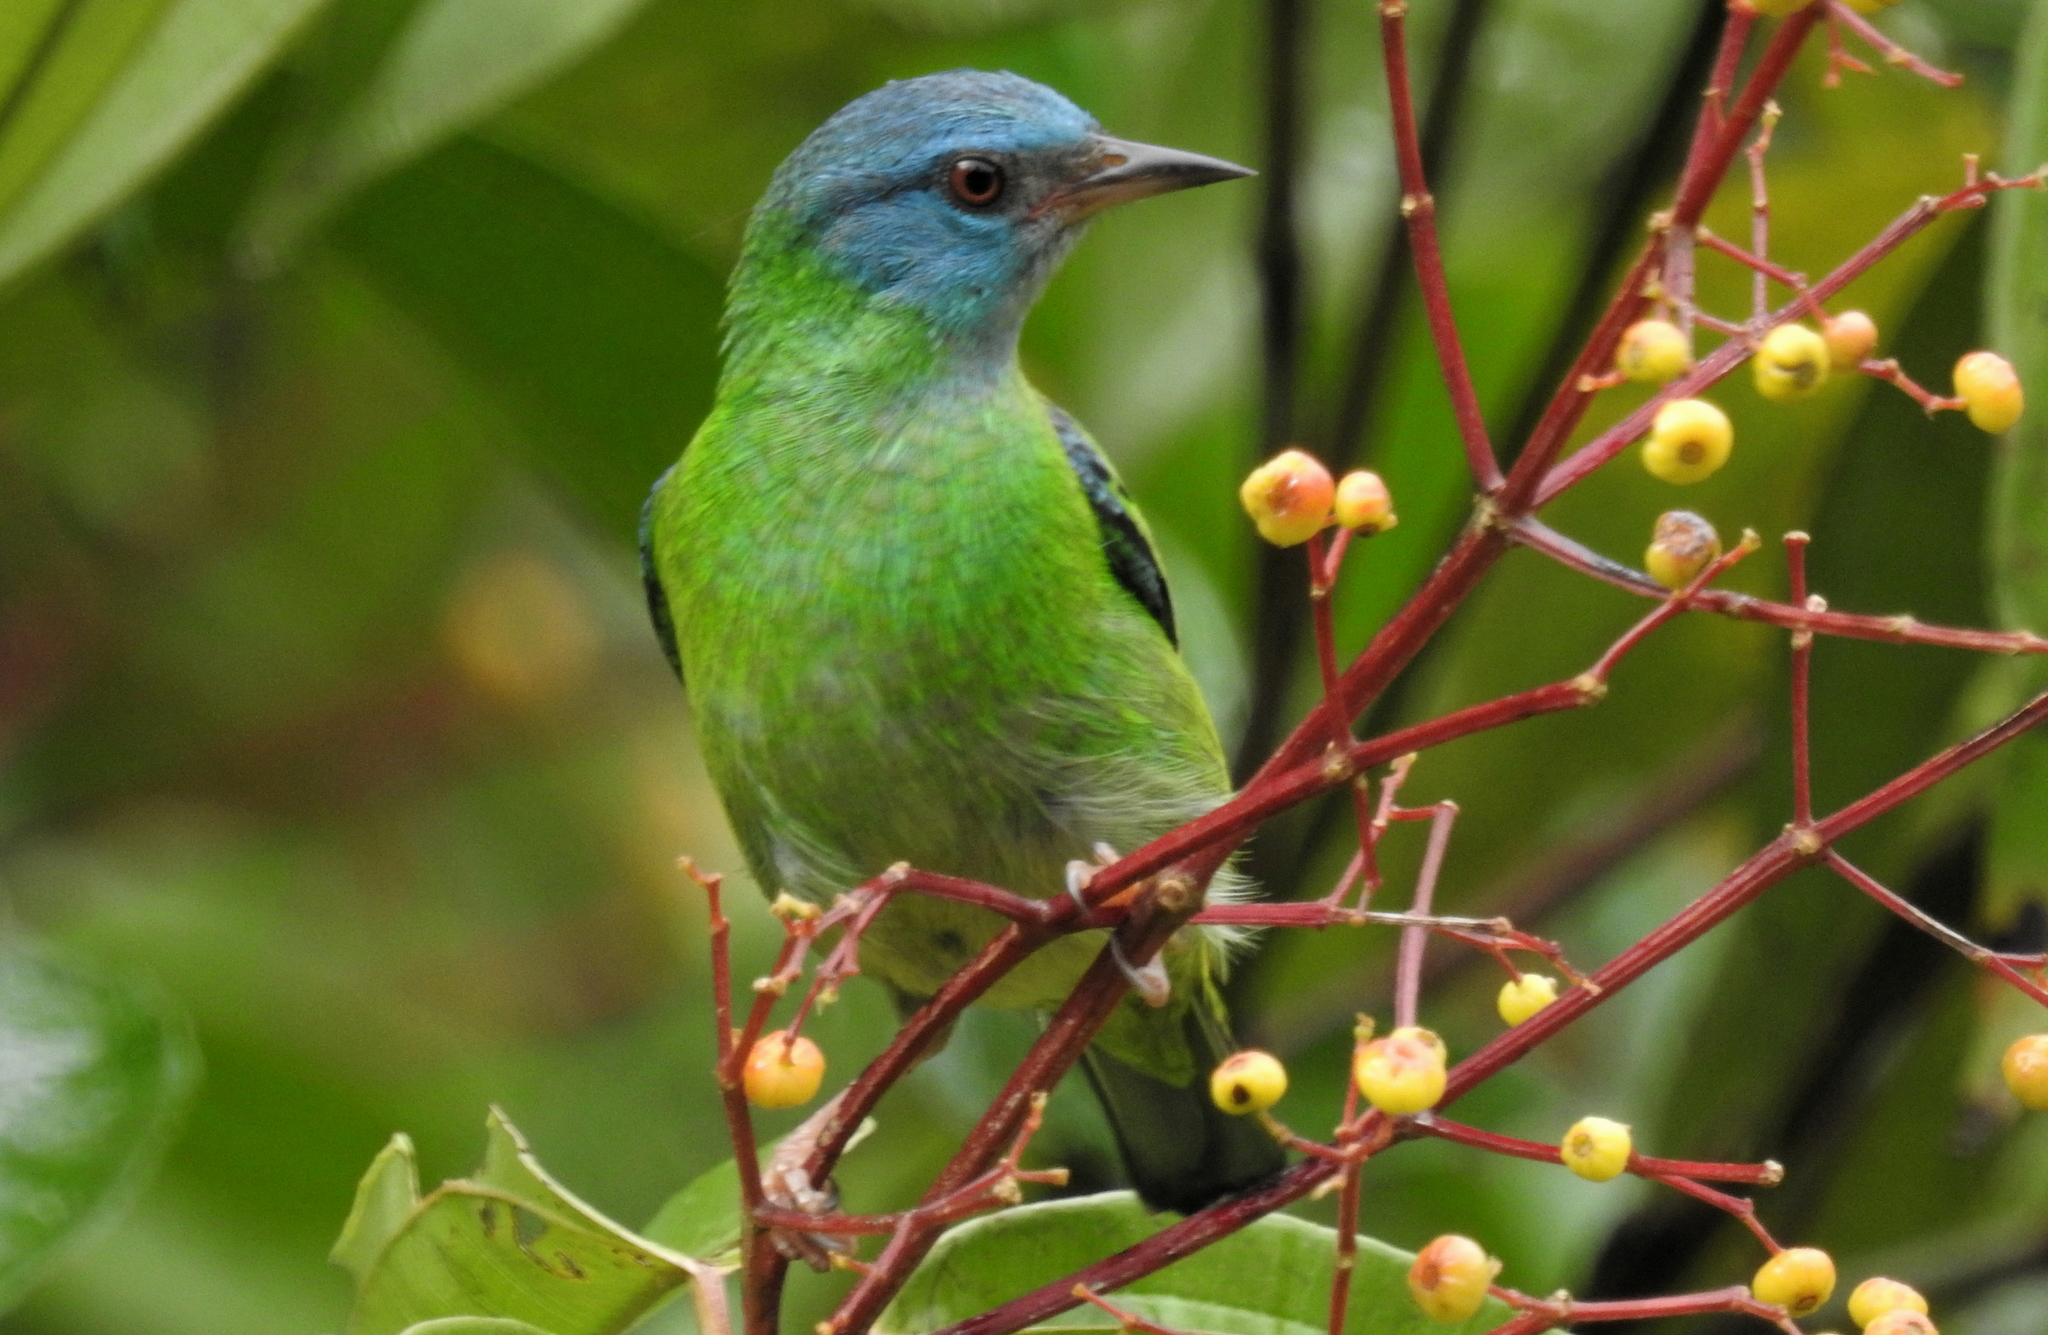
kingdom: Animalia
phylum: Chordata
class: Aves
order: Passeriformes
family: Thraupidae
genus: Dacnis
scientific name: Dacnis cayana
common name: Blue dacnis
